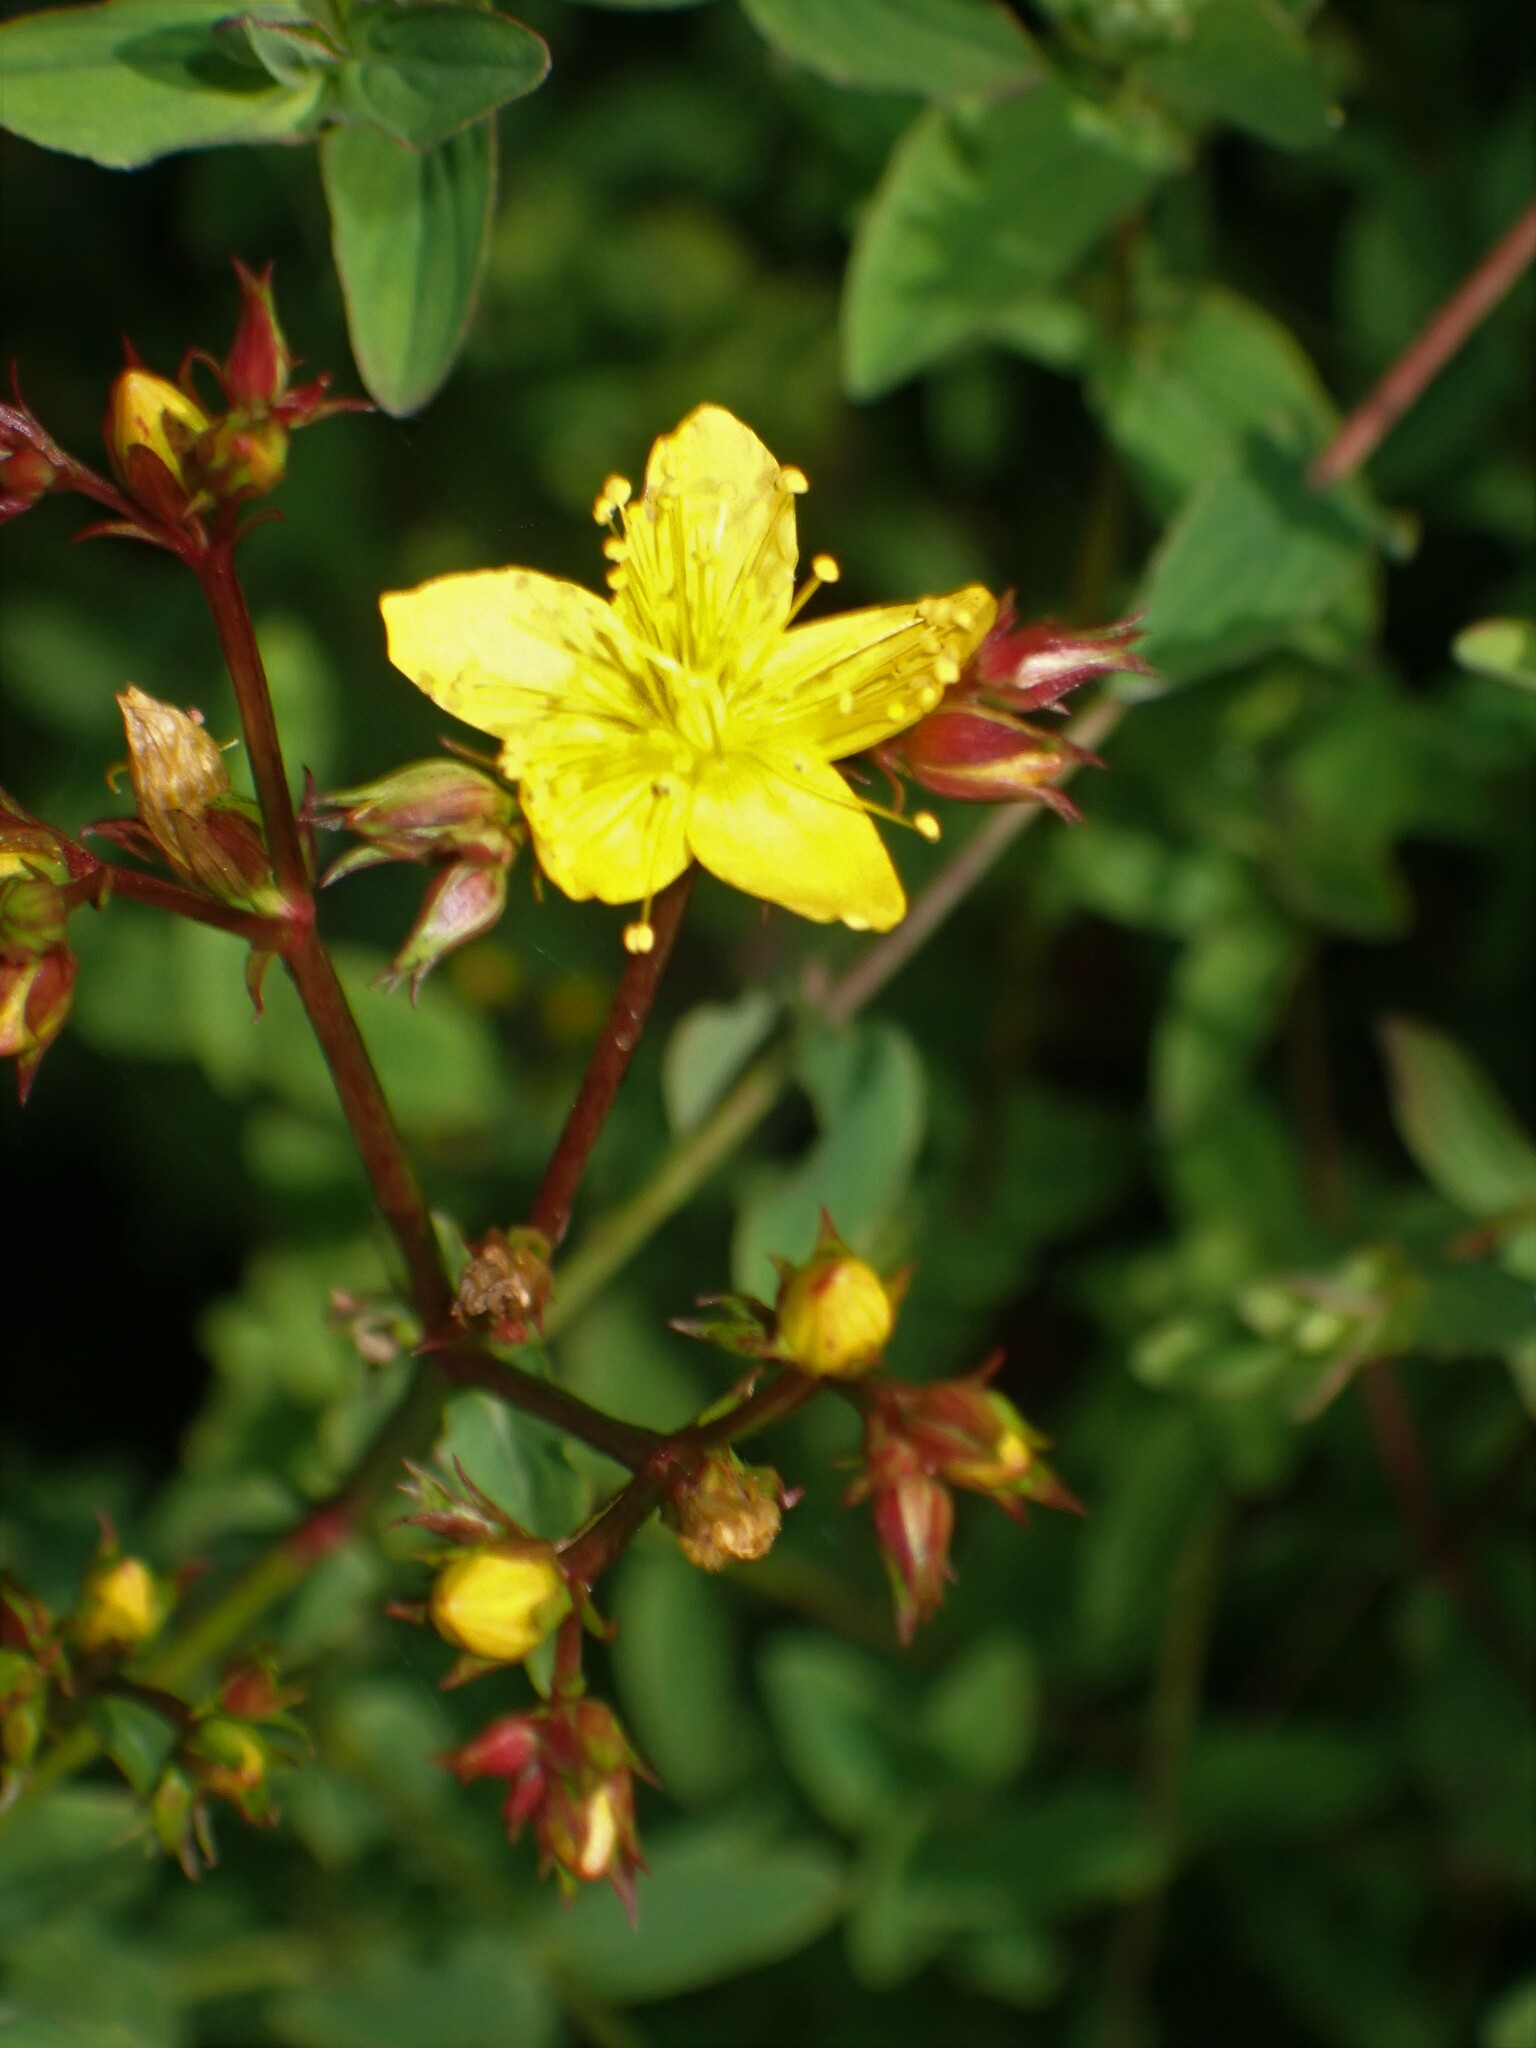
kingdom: Plantae
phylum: Tracheophyta
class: Magnoliopsida
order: Malpighiales
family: Hypericaceae
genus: Hypericum
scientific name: Hypericum undulatum
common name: Wavy st. john's-wort
